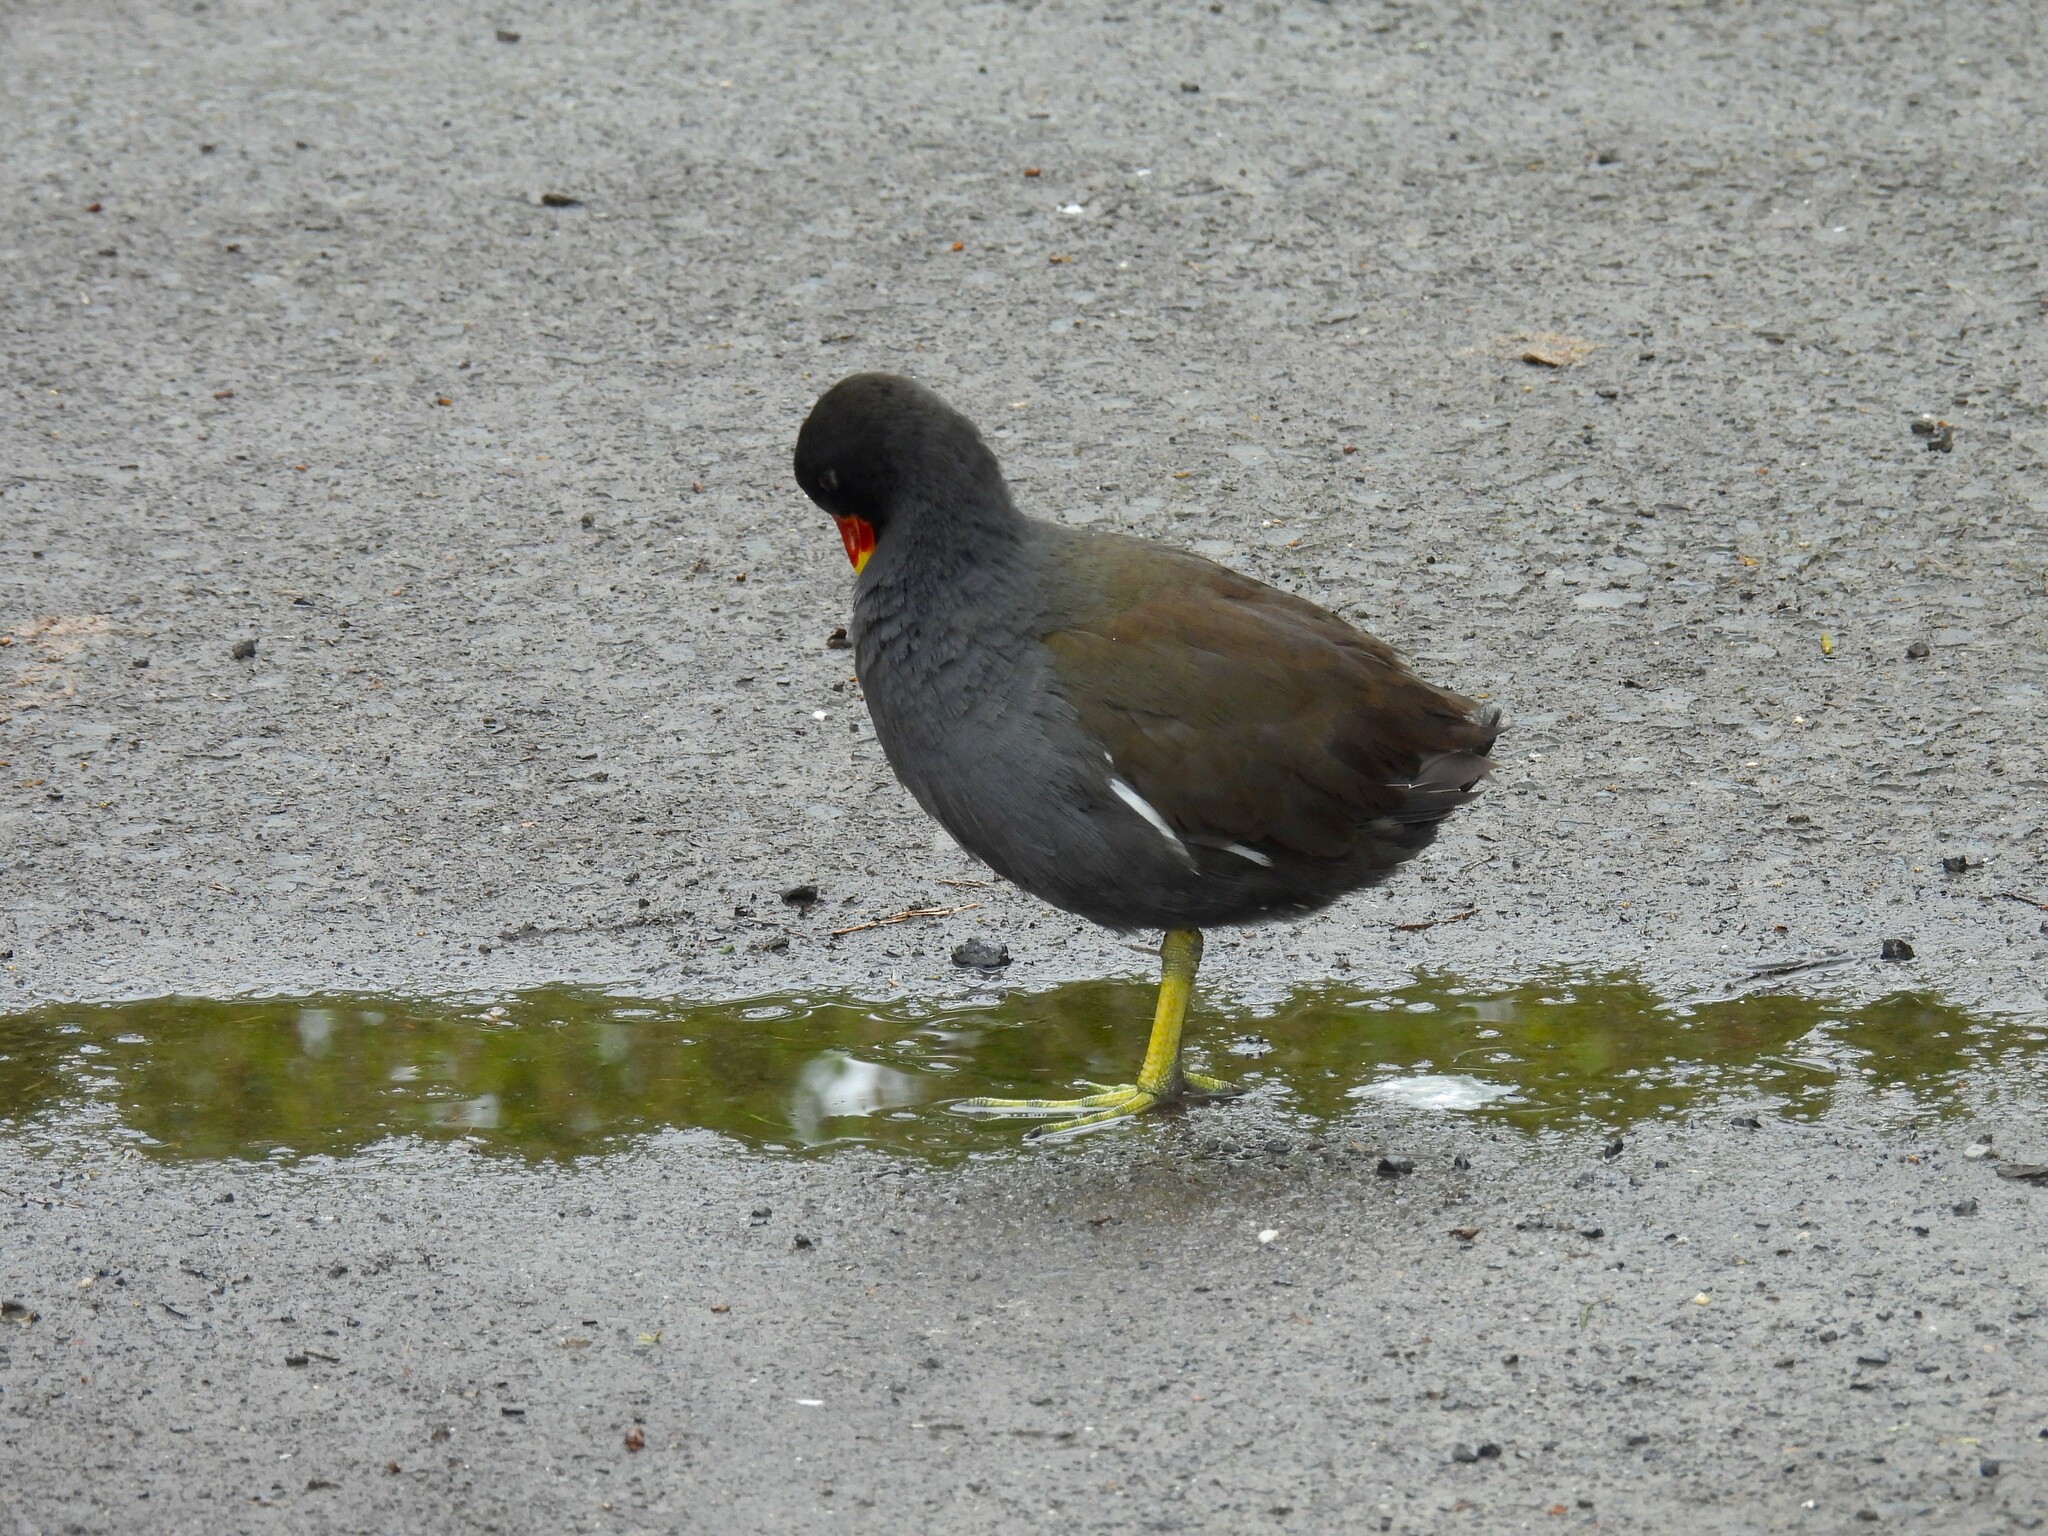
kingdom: Animalia
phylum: Chordata
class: Aves
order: Gruiformes
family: Rallidae
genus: Gallinula
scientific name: Gallinula chloropus
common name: Common moorhen
